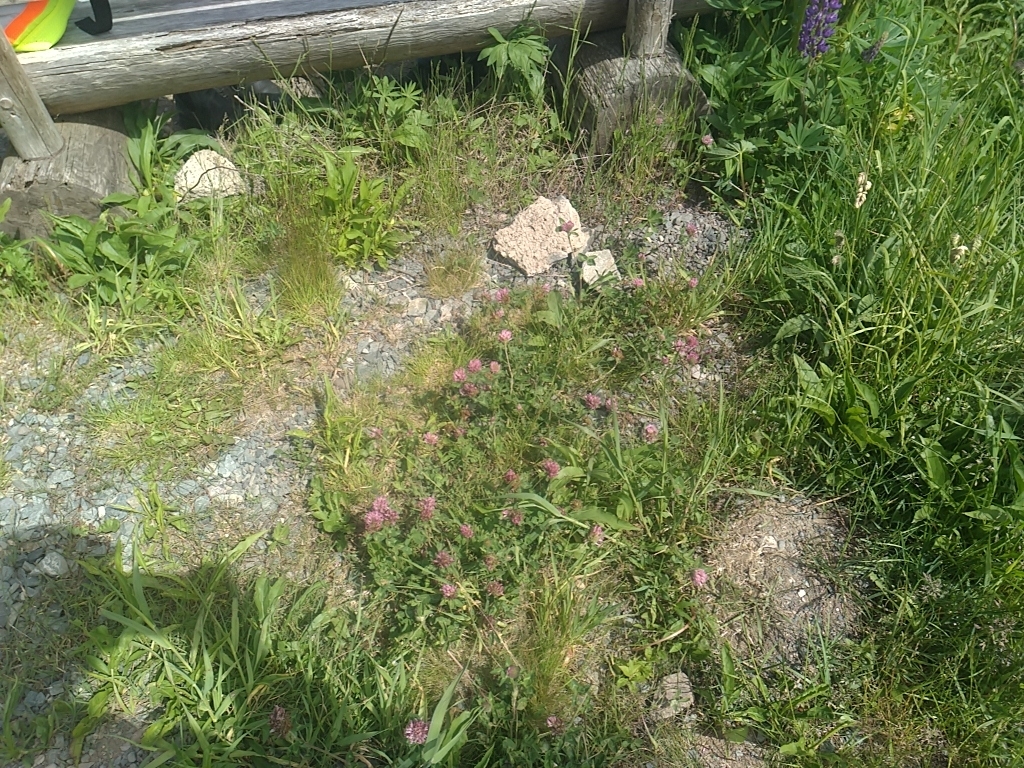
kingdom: Plantae
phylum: Tracheophyta
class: Magnoliopsida
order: Fabales
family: Fabaceae
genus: Trifolium
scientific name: Trifolium pratense
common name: Red clover
